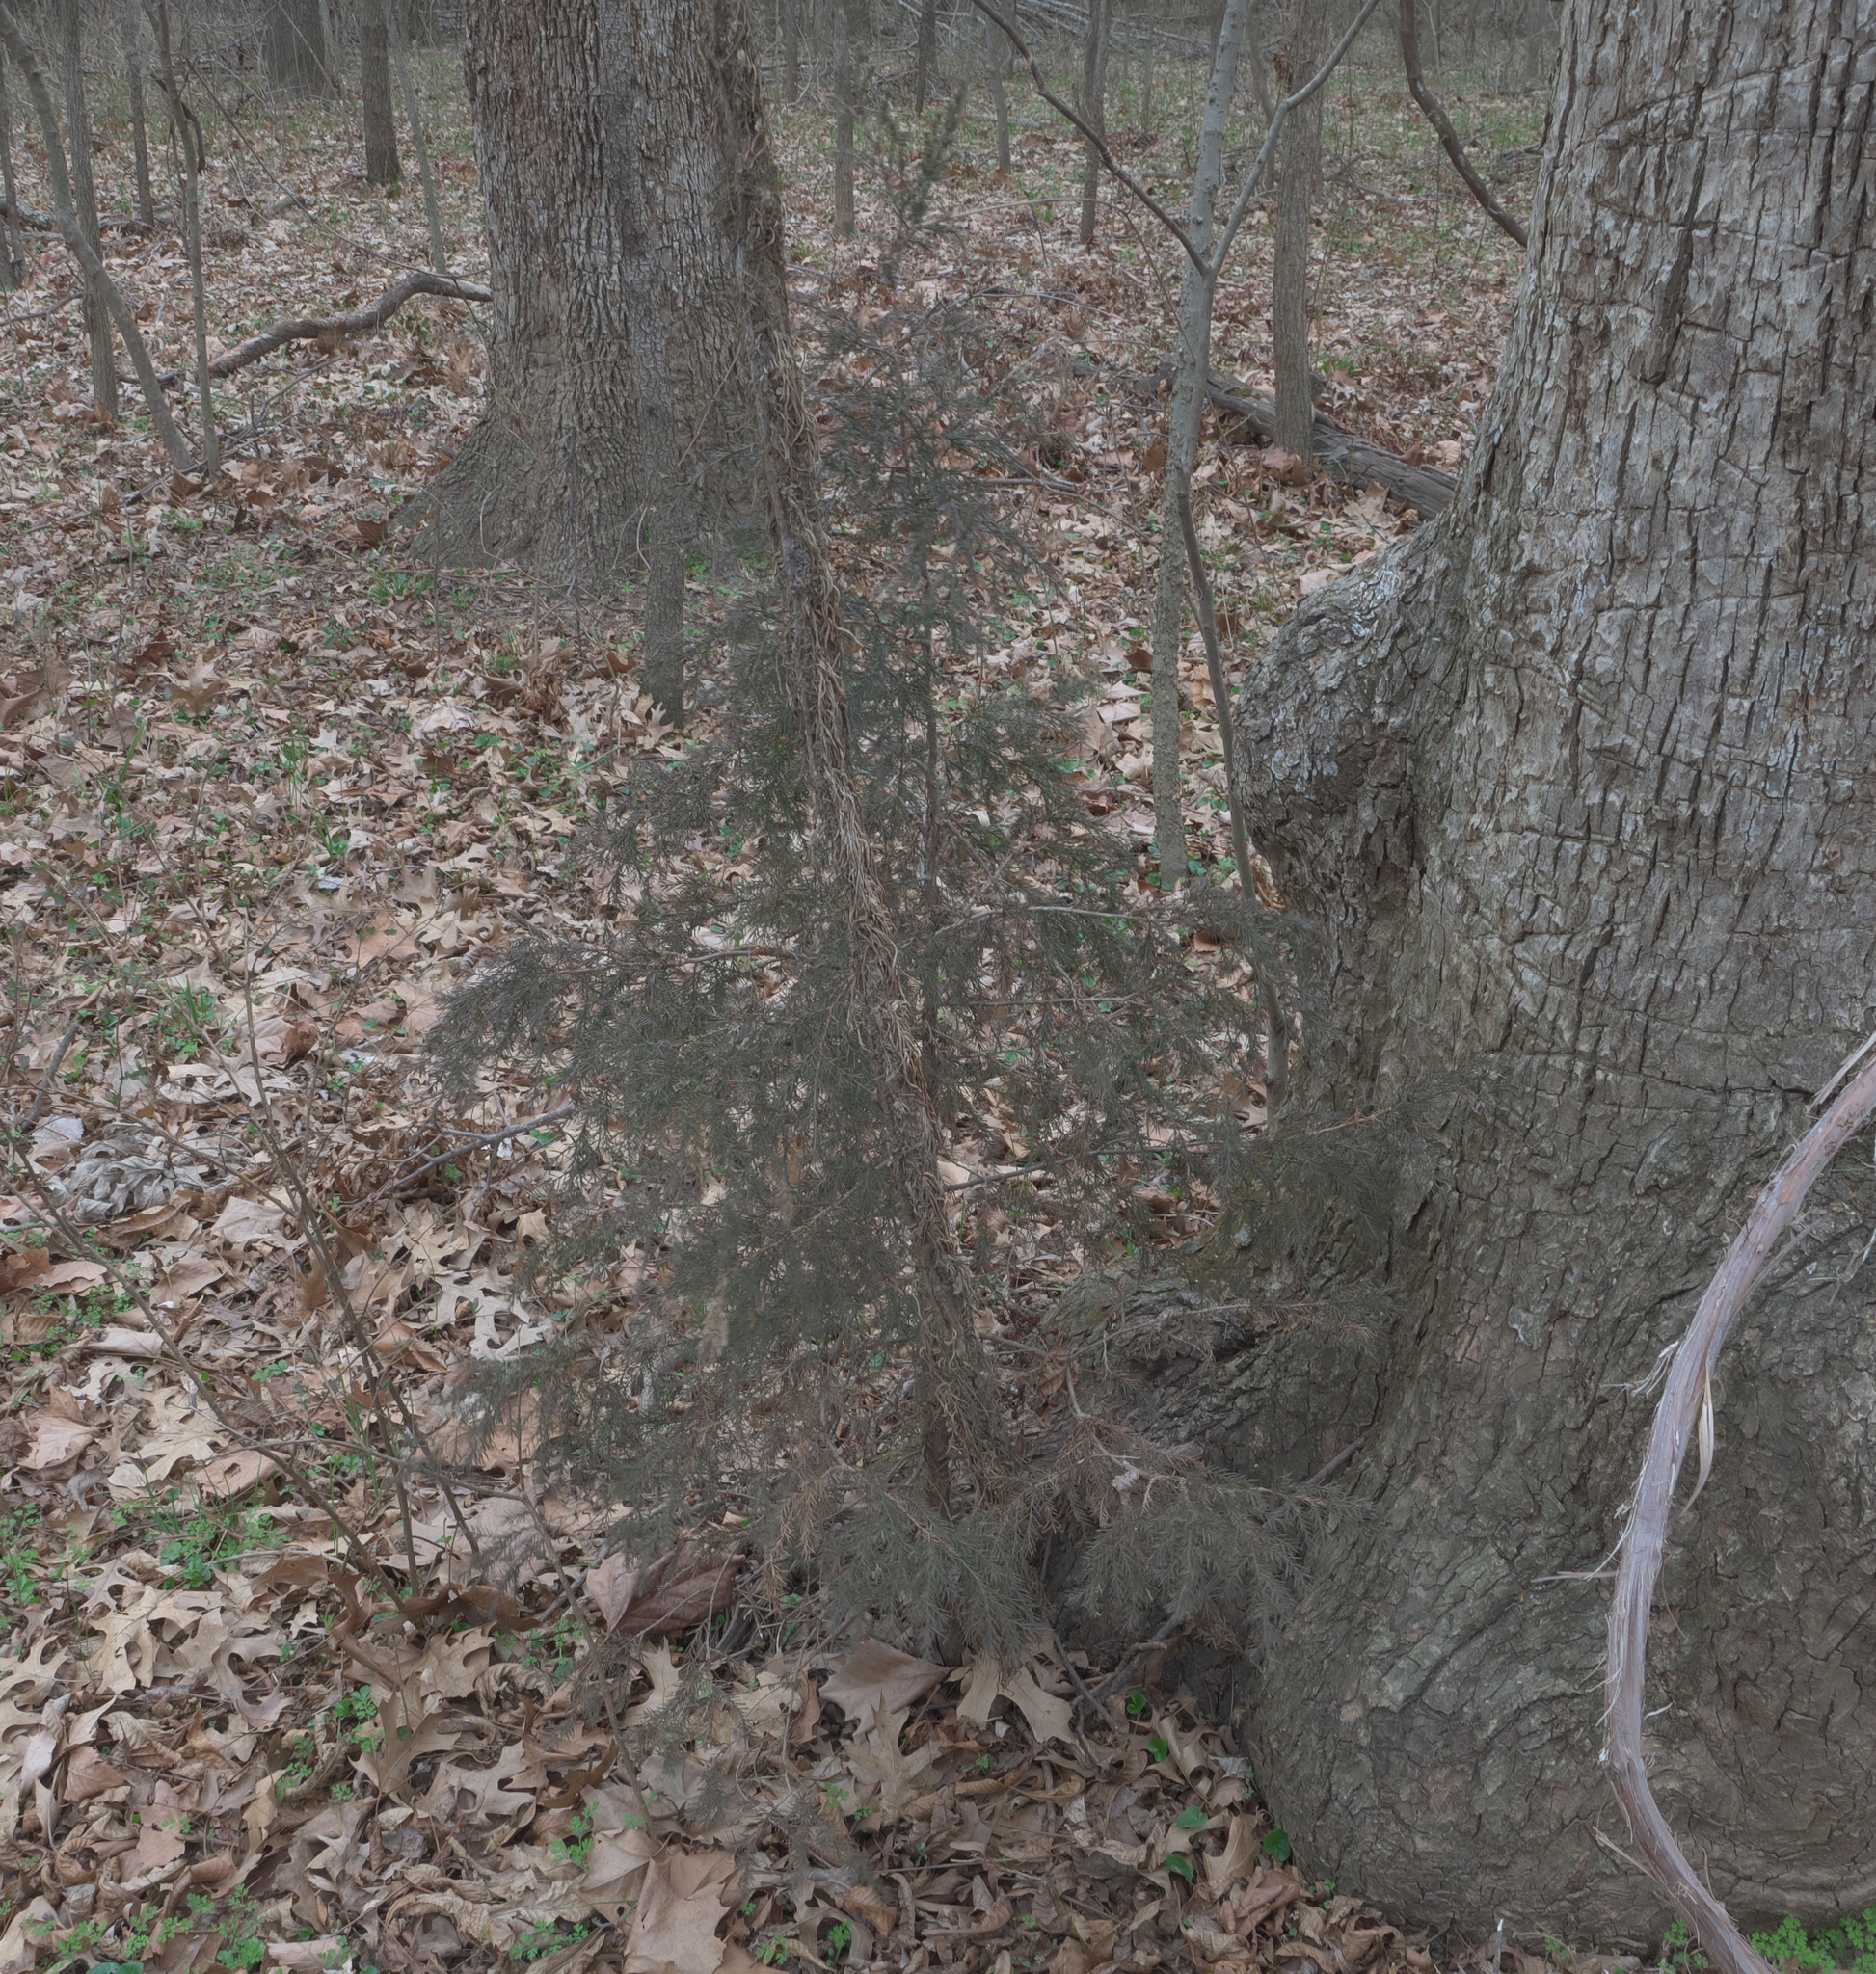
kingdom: Plantae
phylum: Tracheophyta
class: Pinopsida
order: Pinales
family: Cupressaceae
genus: Juniperus
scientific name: Juniperus virginiana
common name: Red juniper
